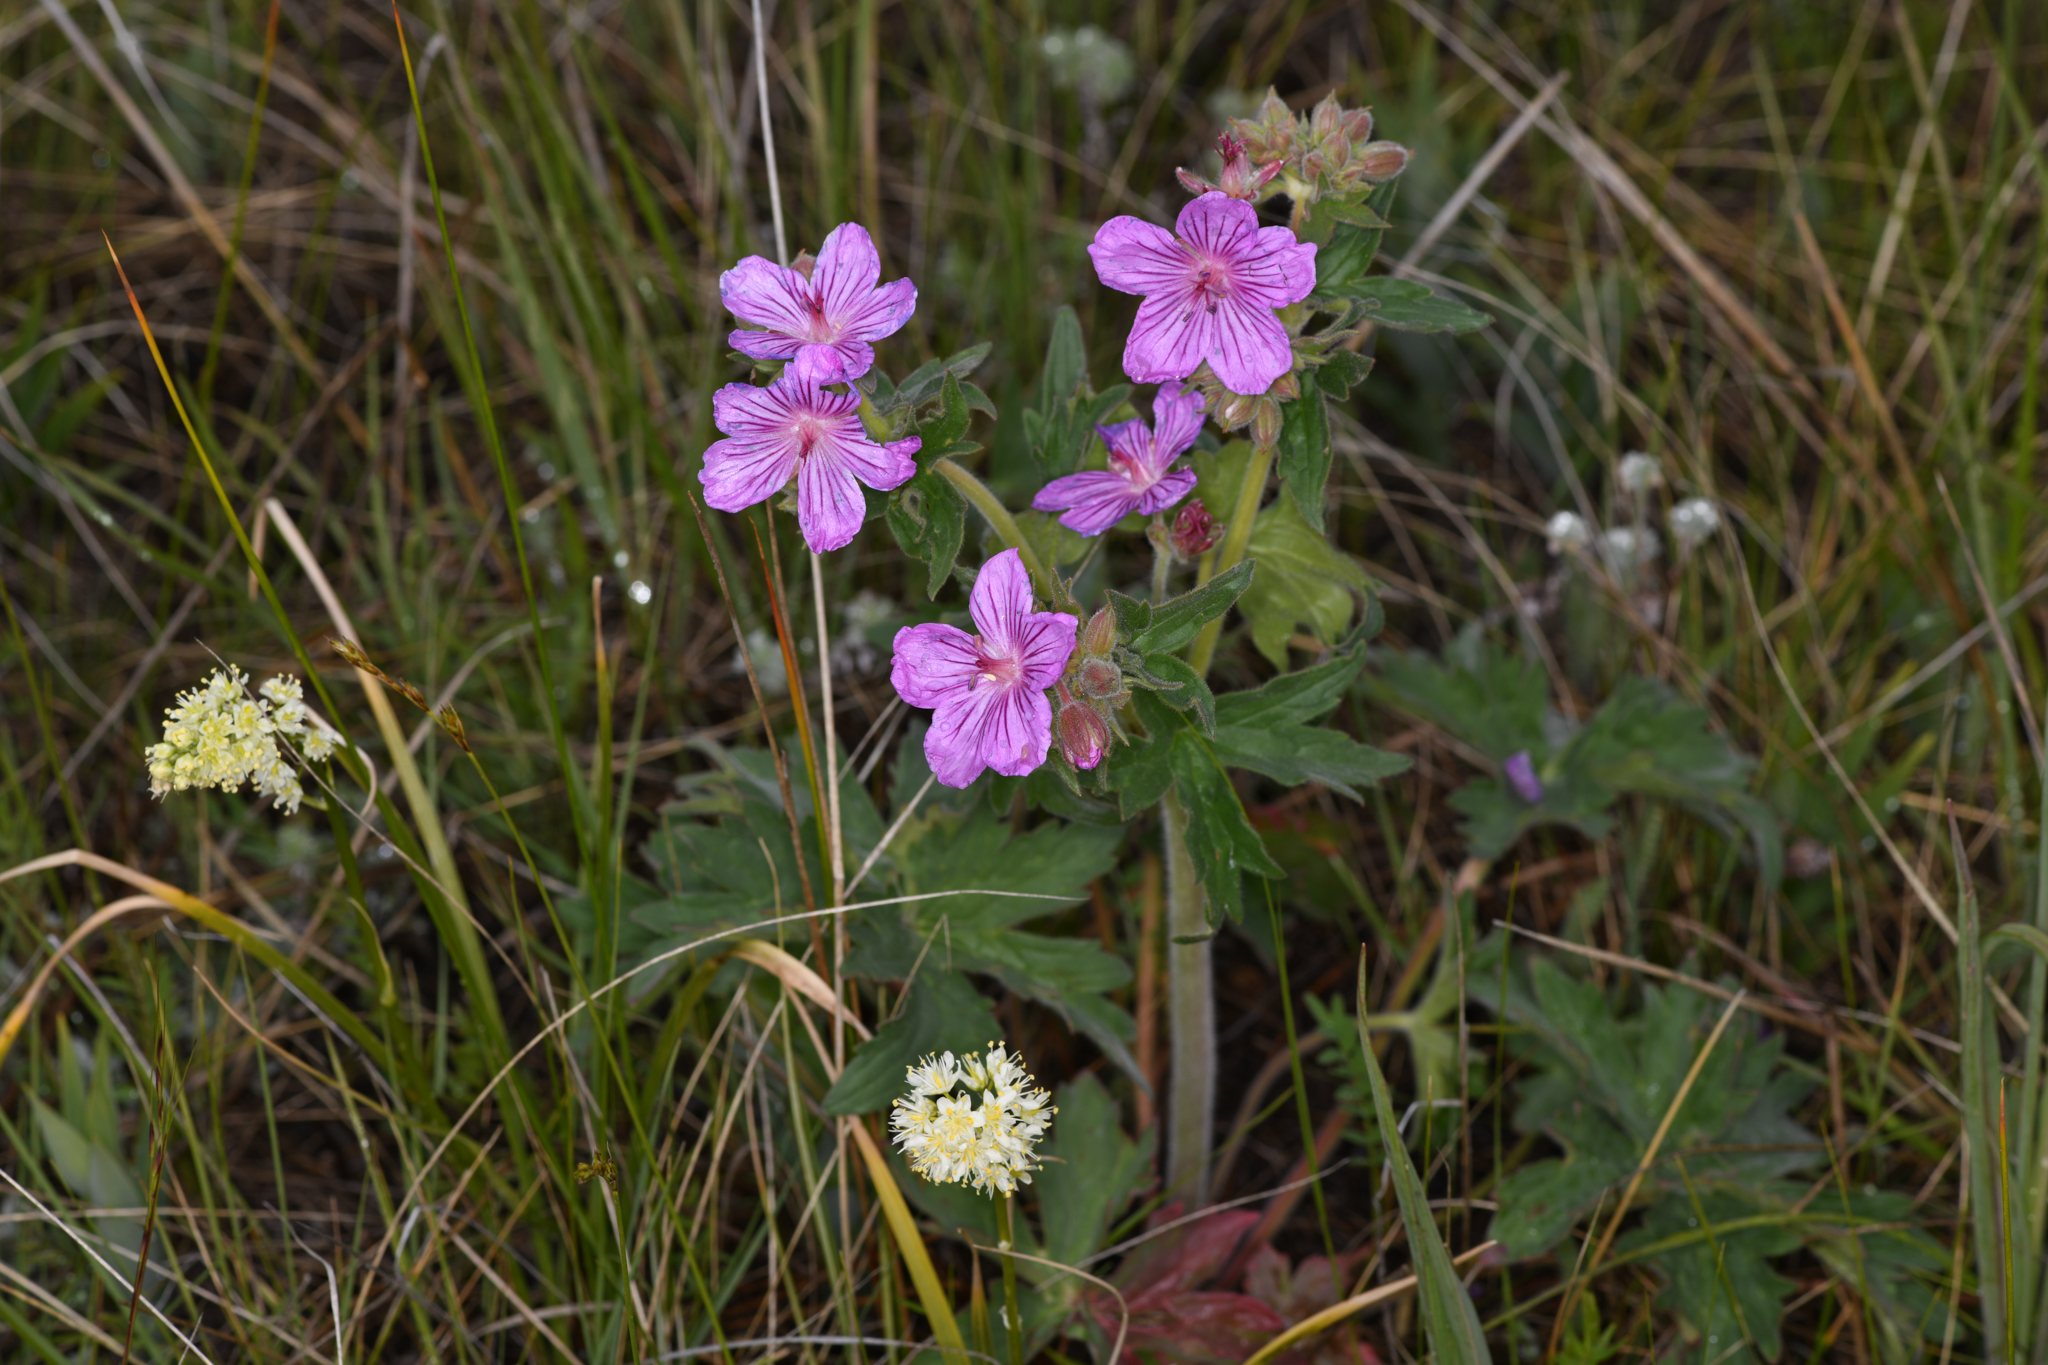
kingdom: Plantae
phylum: Tracheophyta
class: Magnoliopsida
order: Geraniales
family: Geraniaceae
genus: Geranium
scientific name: Geranium viscosissimum
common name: Purple geranium
